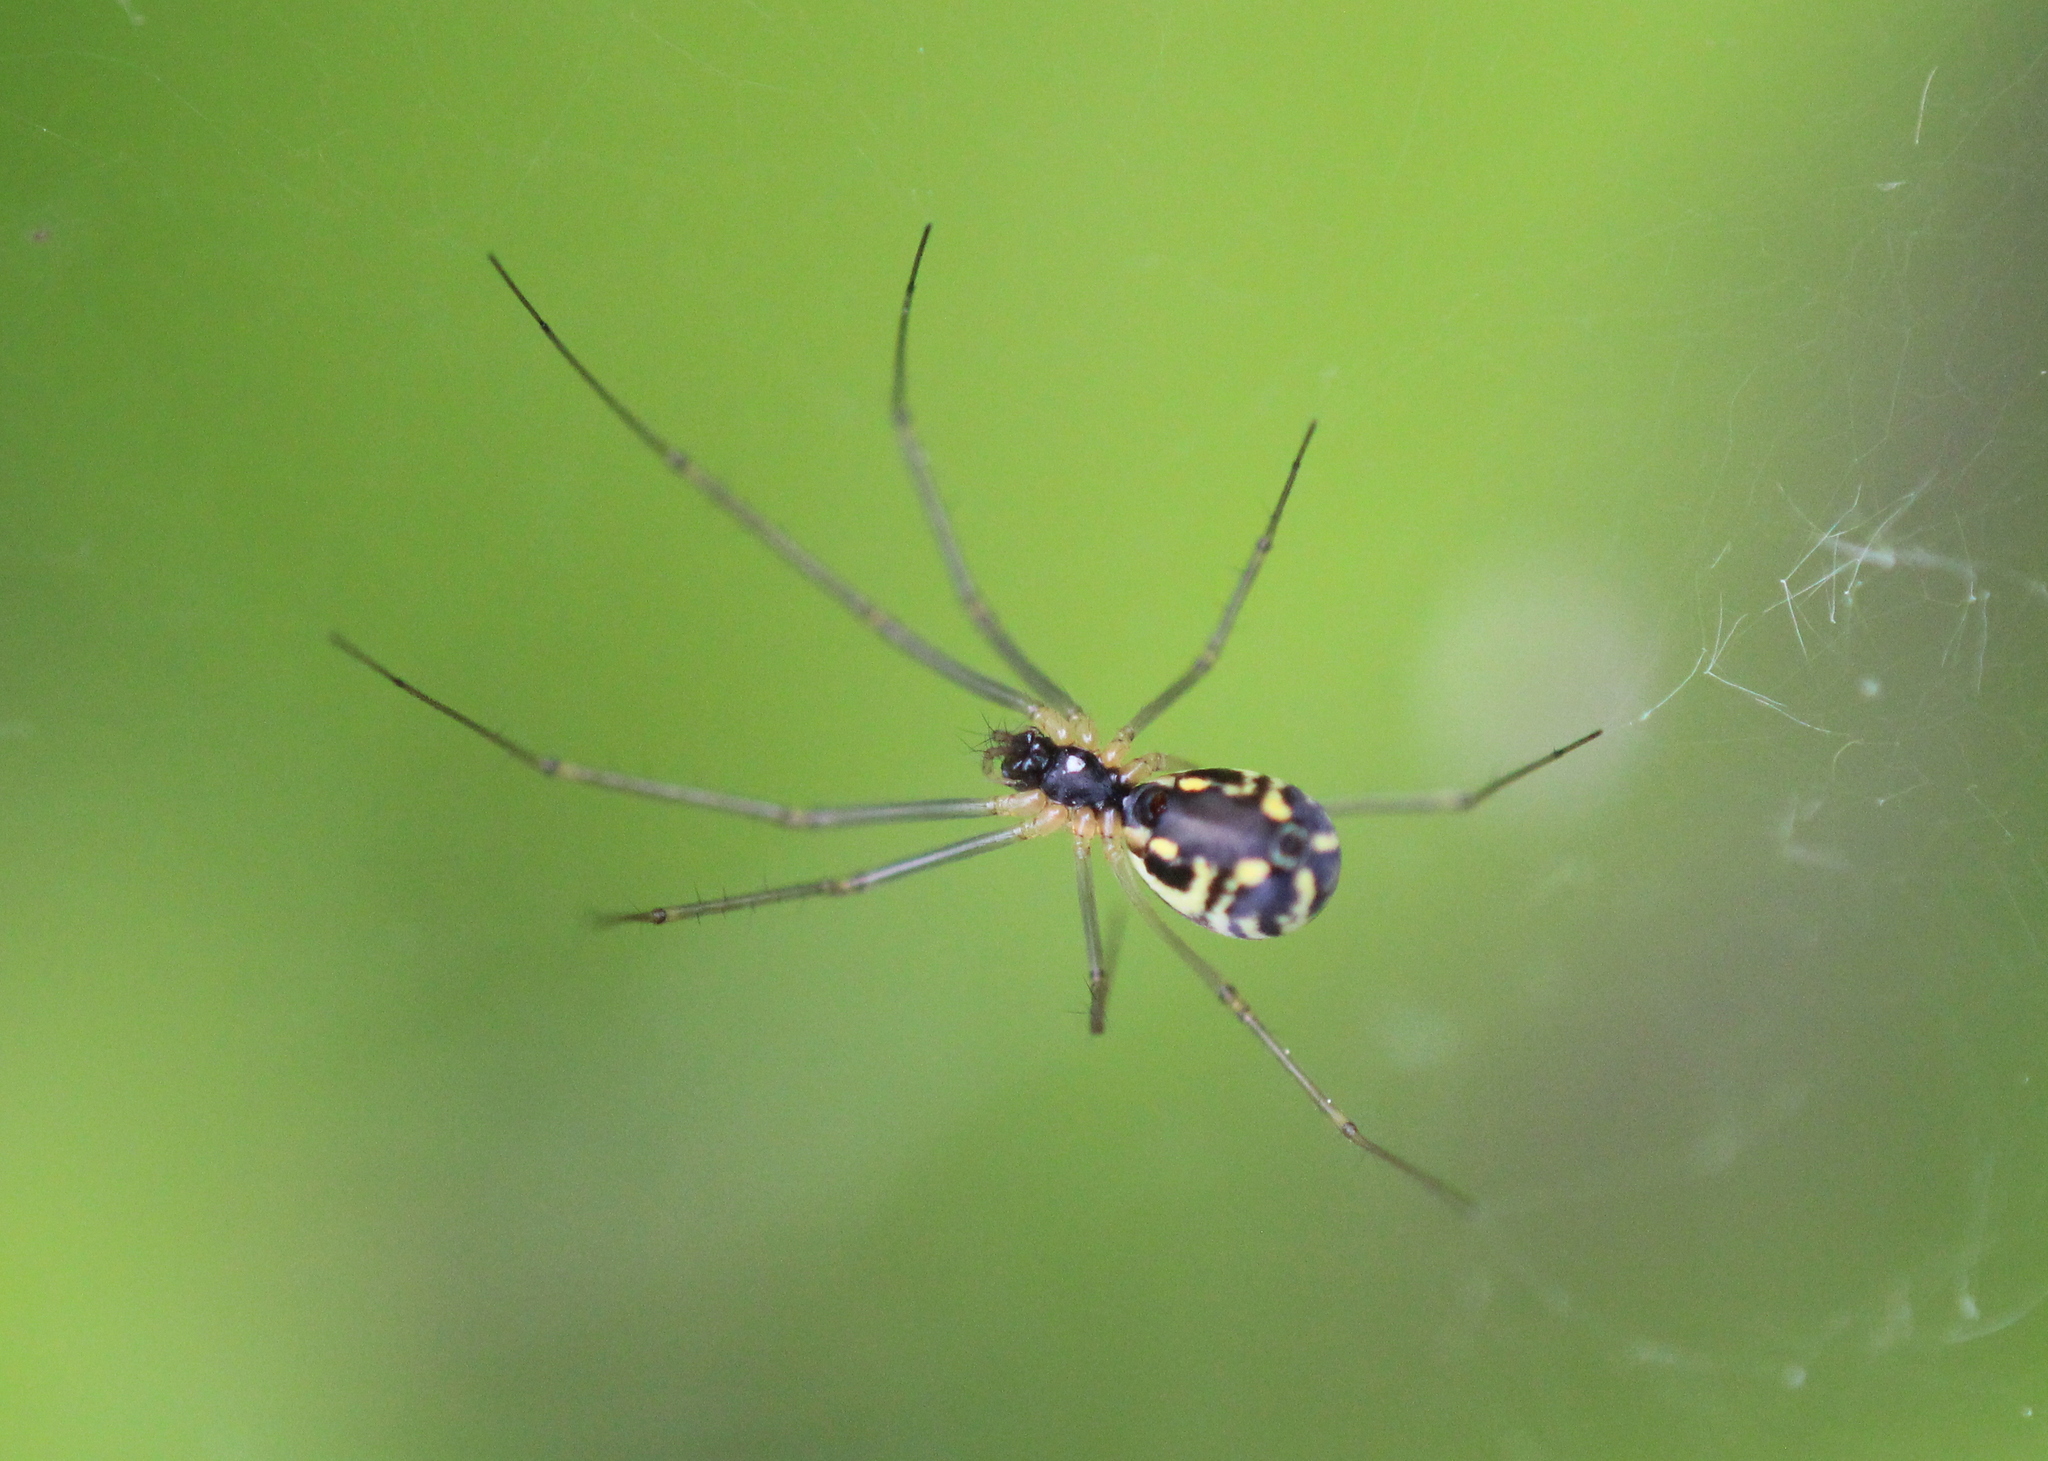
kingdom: Animalia
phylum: Arthropoda
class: Arachnida
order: Araneae
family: Linyphiidae
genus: Neriene
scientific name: Neriene radiata
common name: Filmy dome spider
